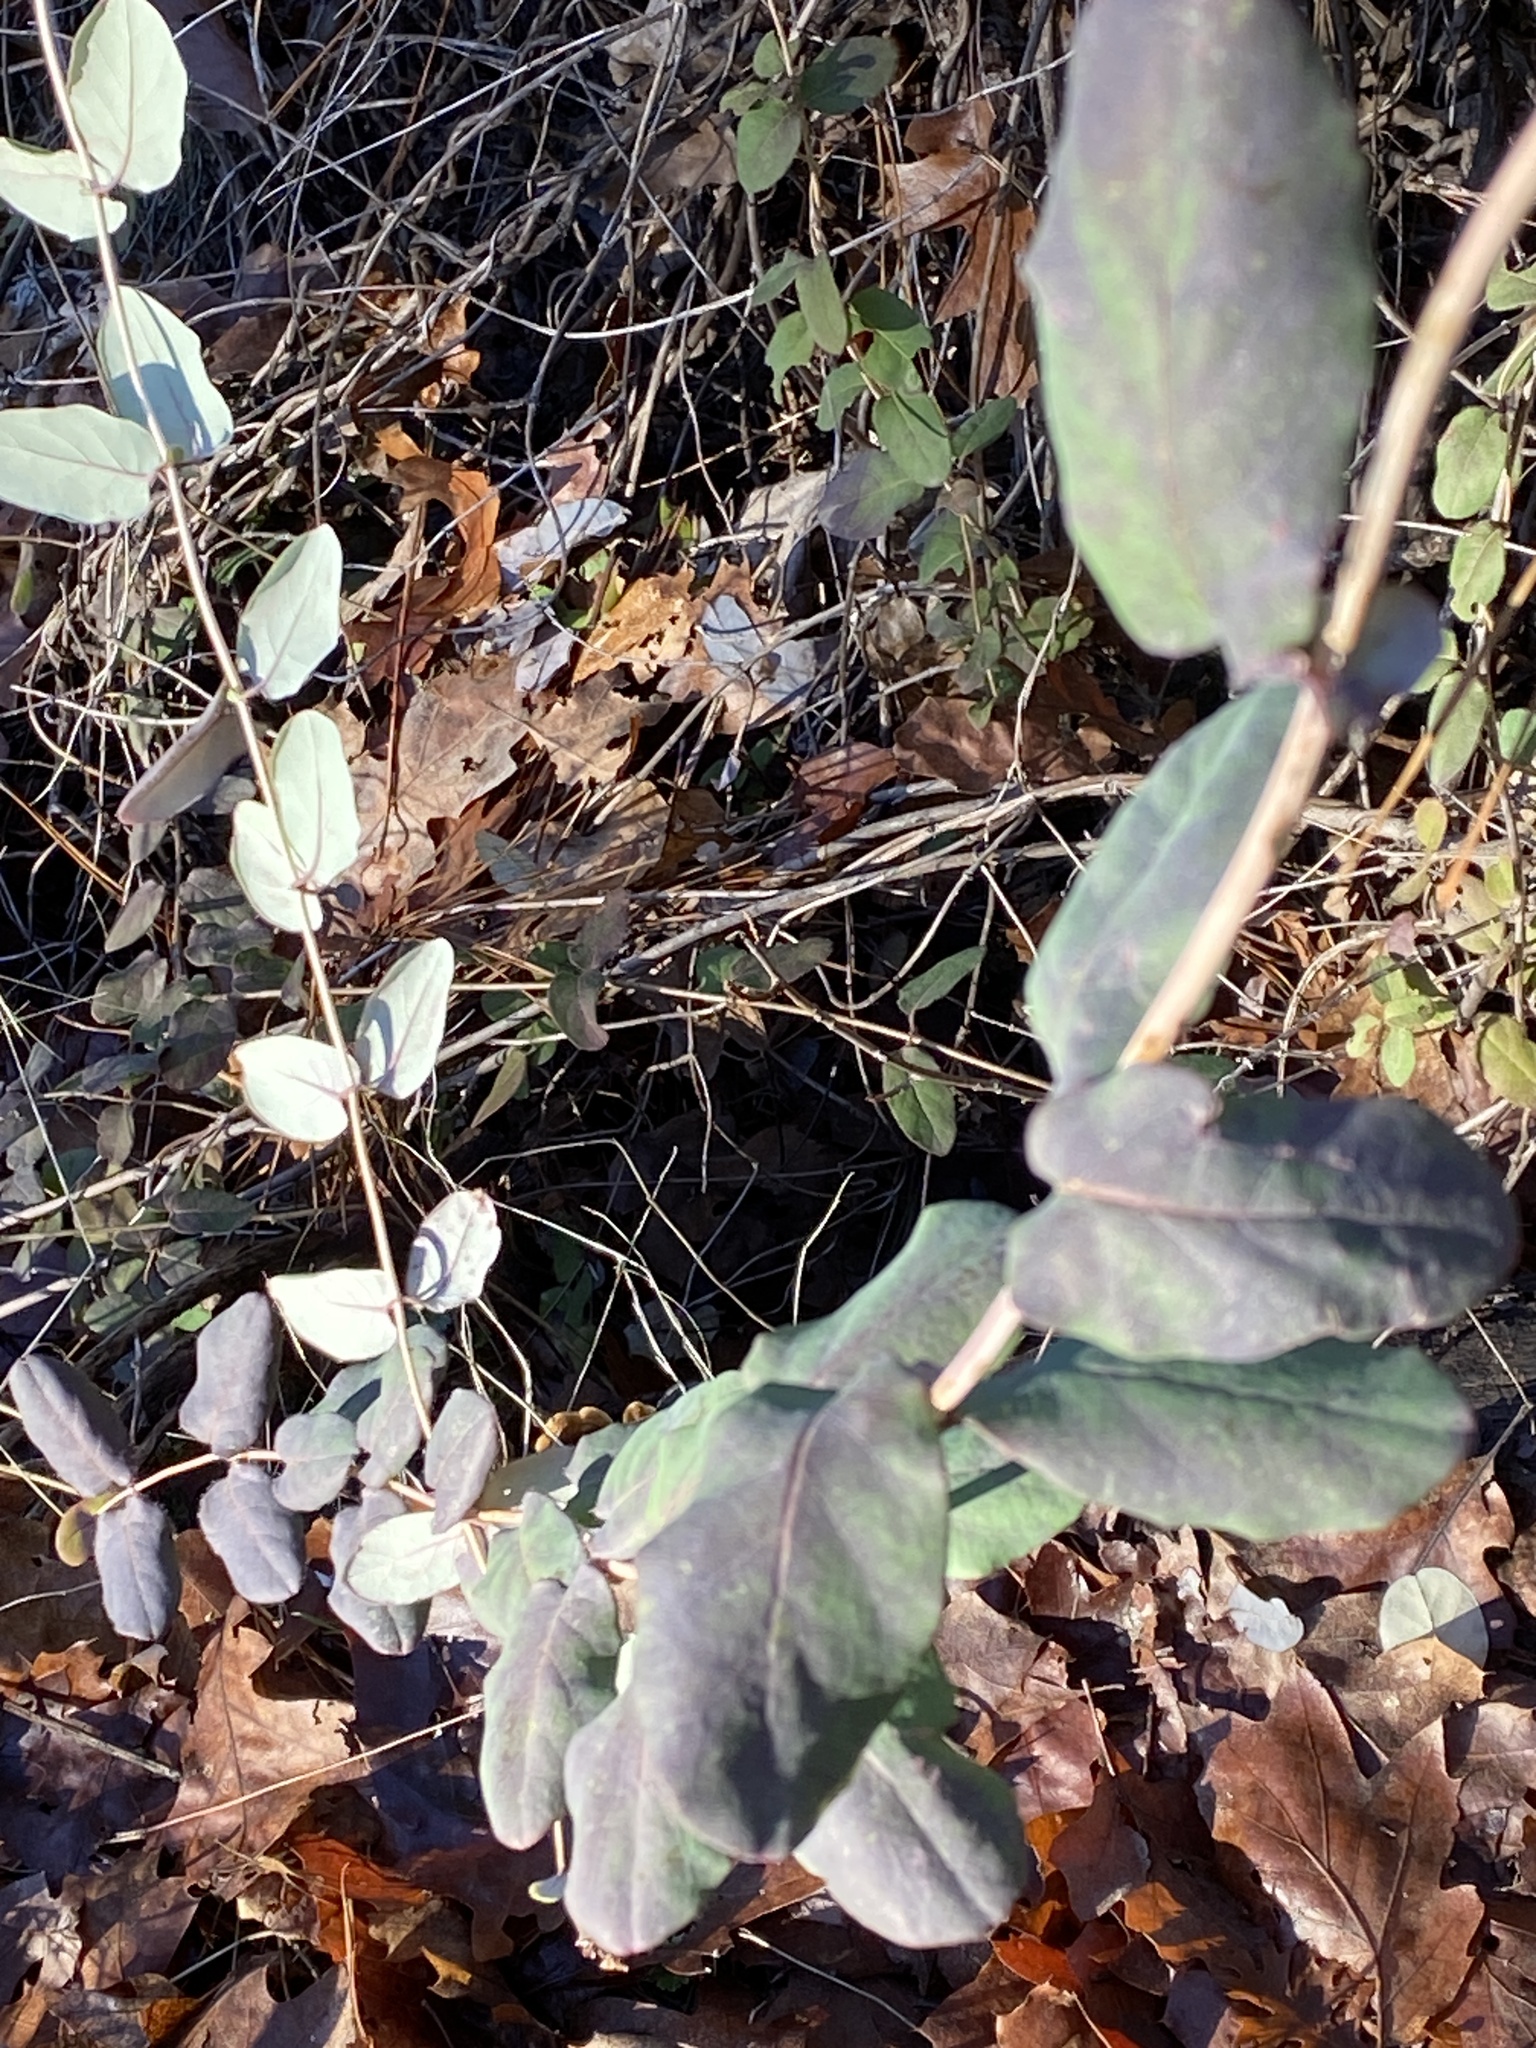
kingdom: Plantae
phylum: Tracheophyta
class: Magnoliopsida
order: Dipsacales
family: Caprifoliaceae
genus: Lonicera
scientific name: Lonicera hispidula
